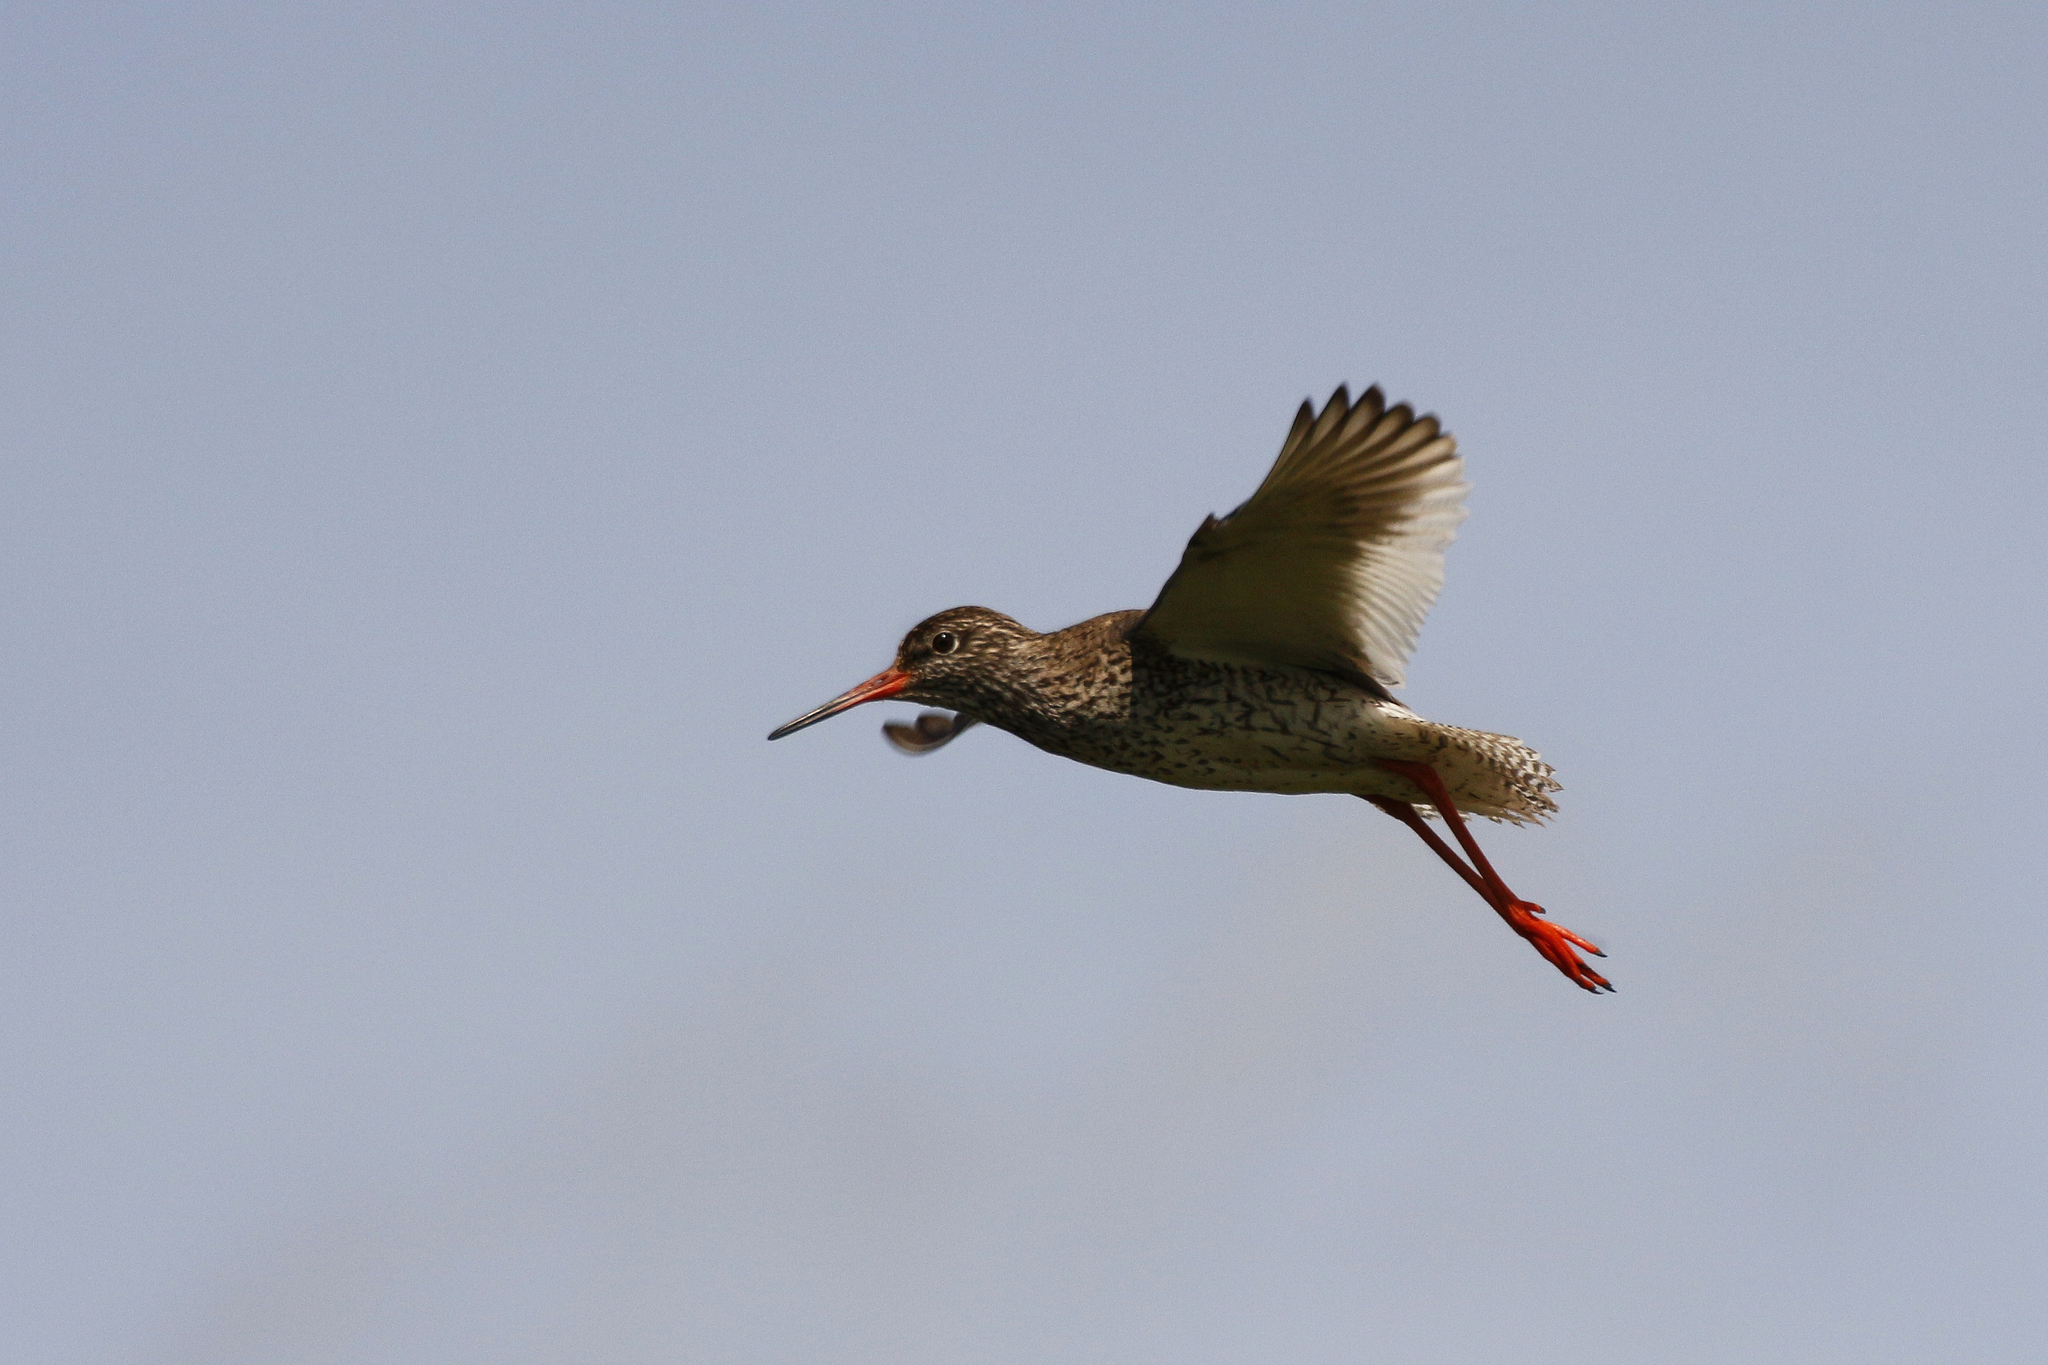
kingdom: Animalia
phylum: Chordata
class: Aves
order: Charadriiformes
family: Scolopacidae
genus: Tringa
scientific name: Tringa totanus
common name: Common redshank
